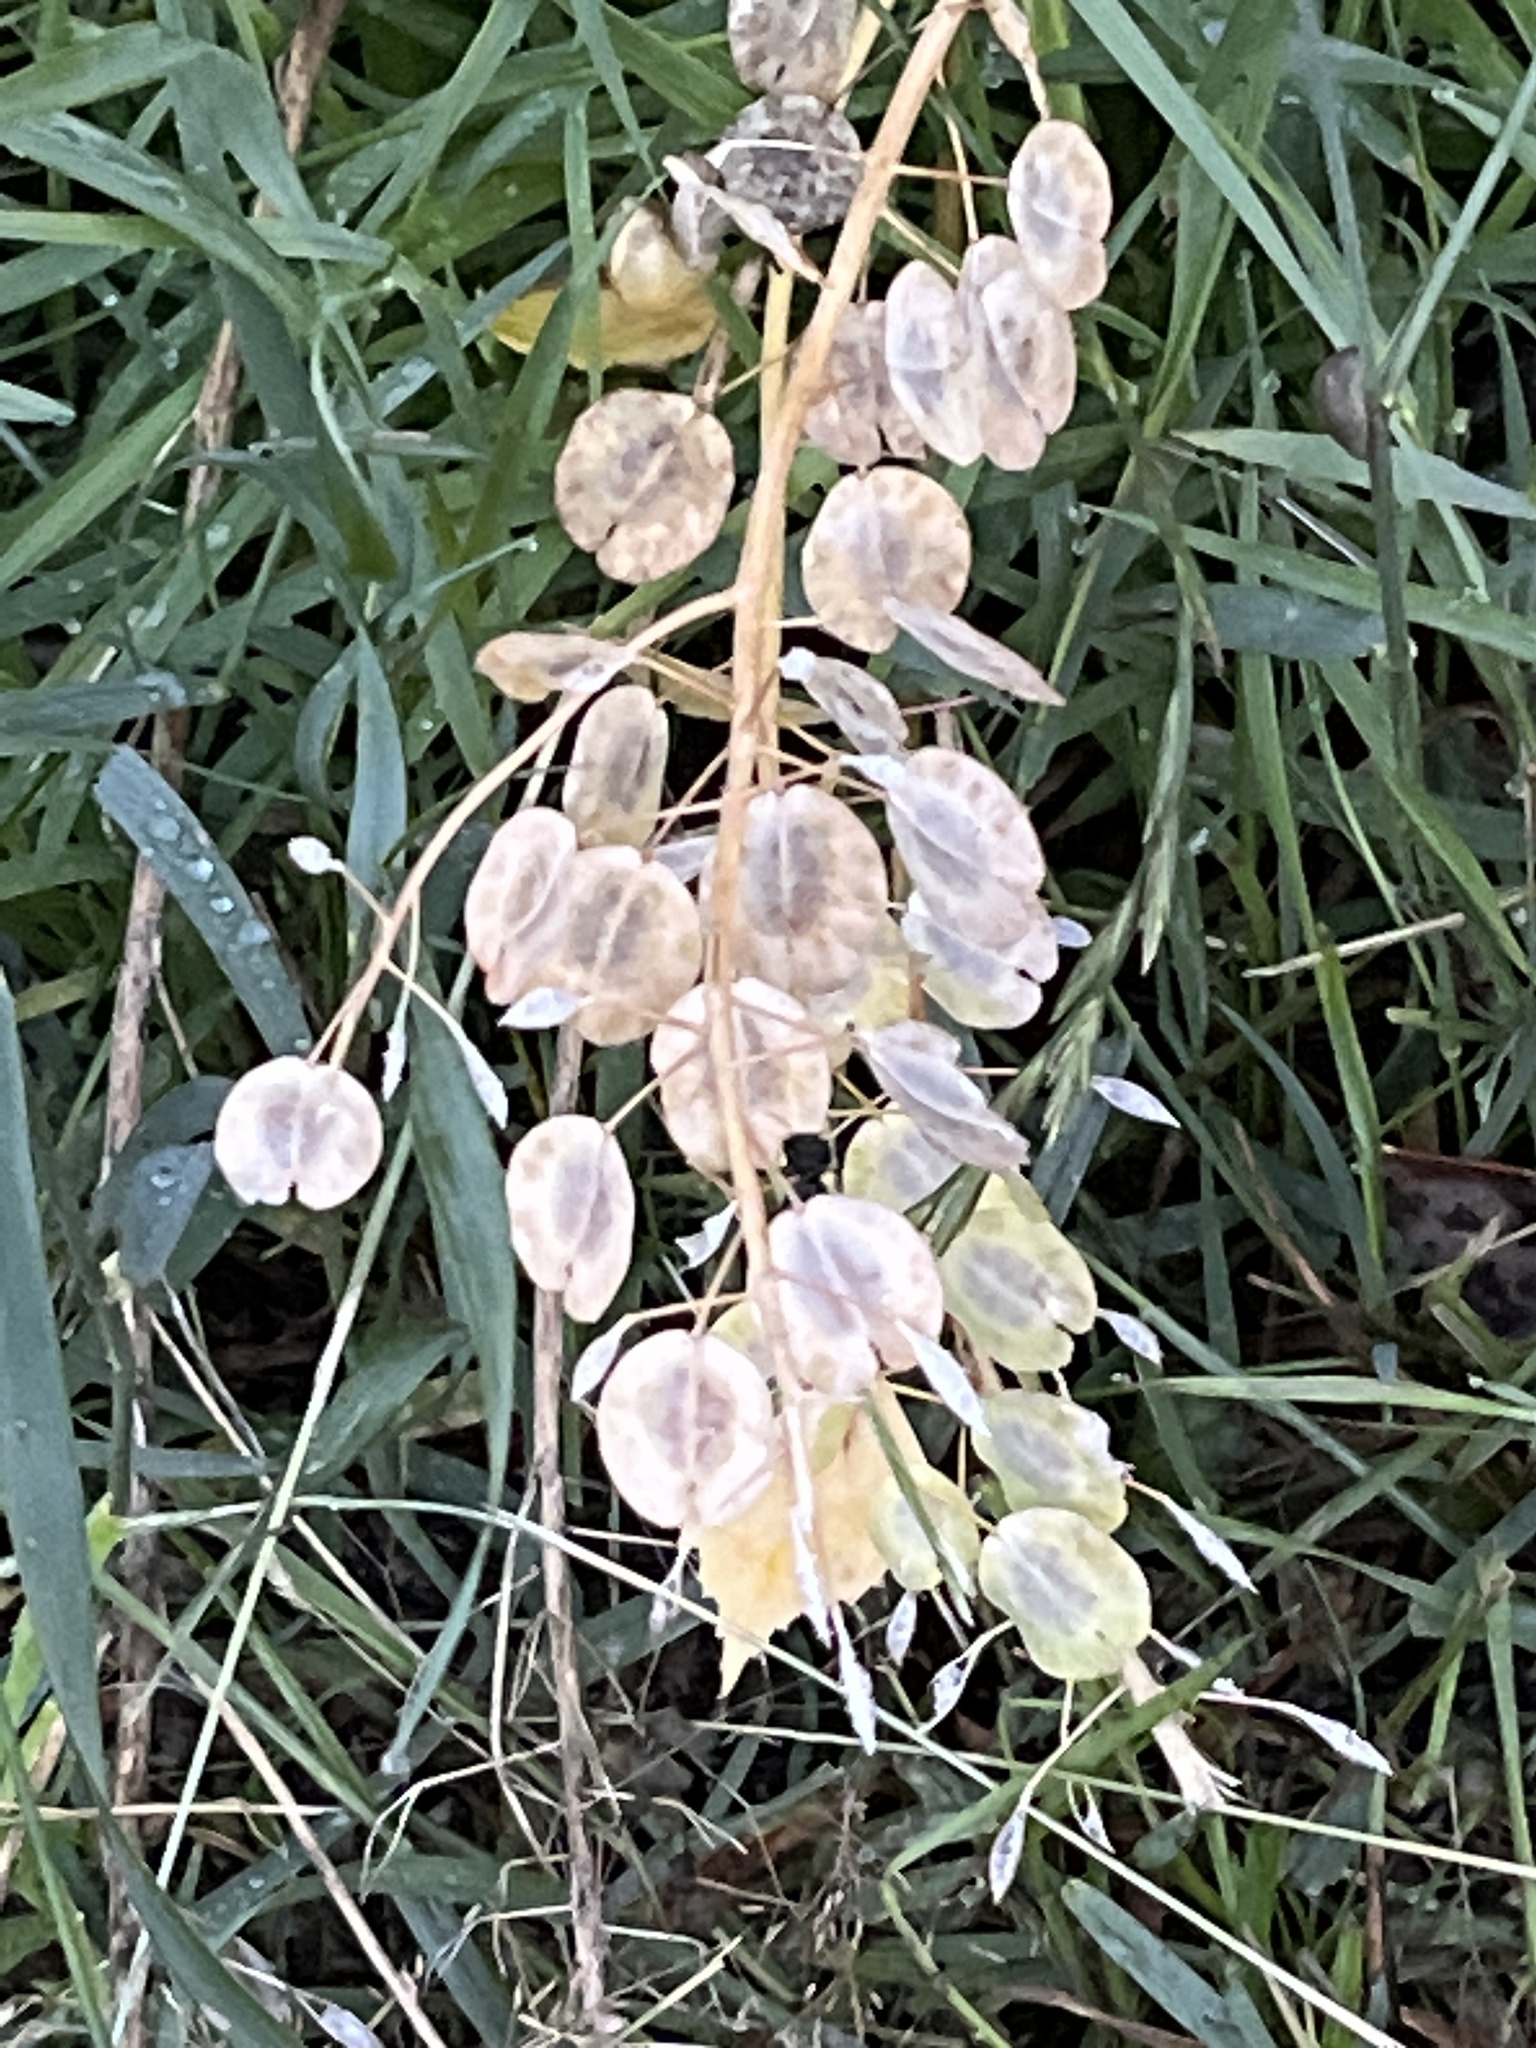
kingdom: Plantae
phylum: Tracheophyta
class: Magnoliopsida
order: Brassicales
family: Brassicaceae
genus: Thlaspi
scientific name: Thlaspi arvense
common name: Field pennycress
